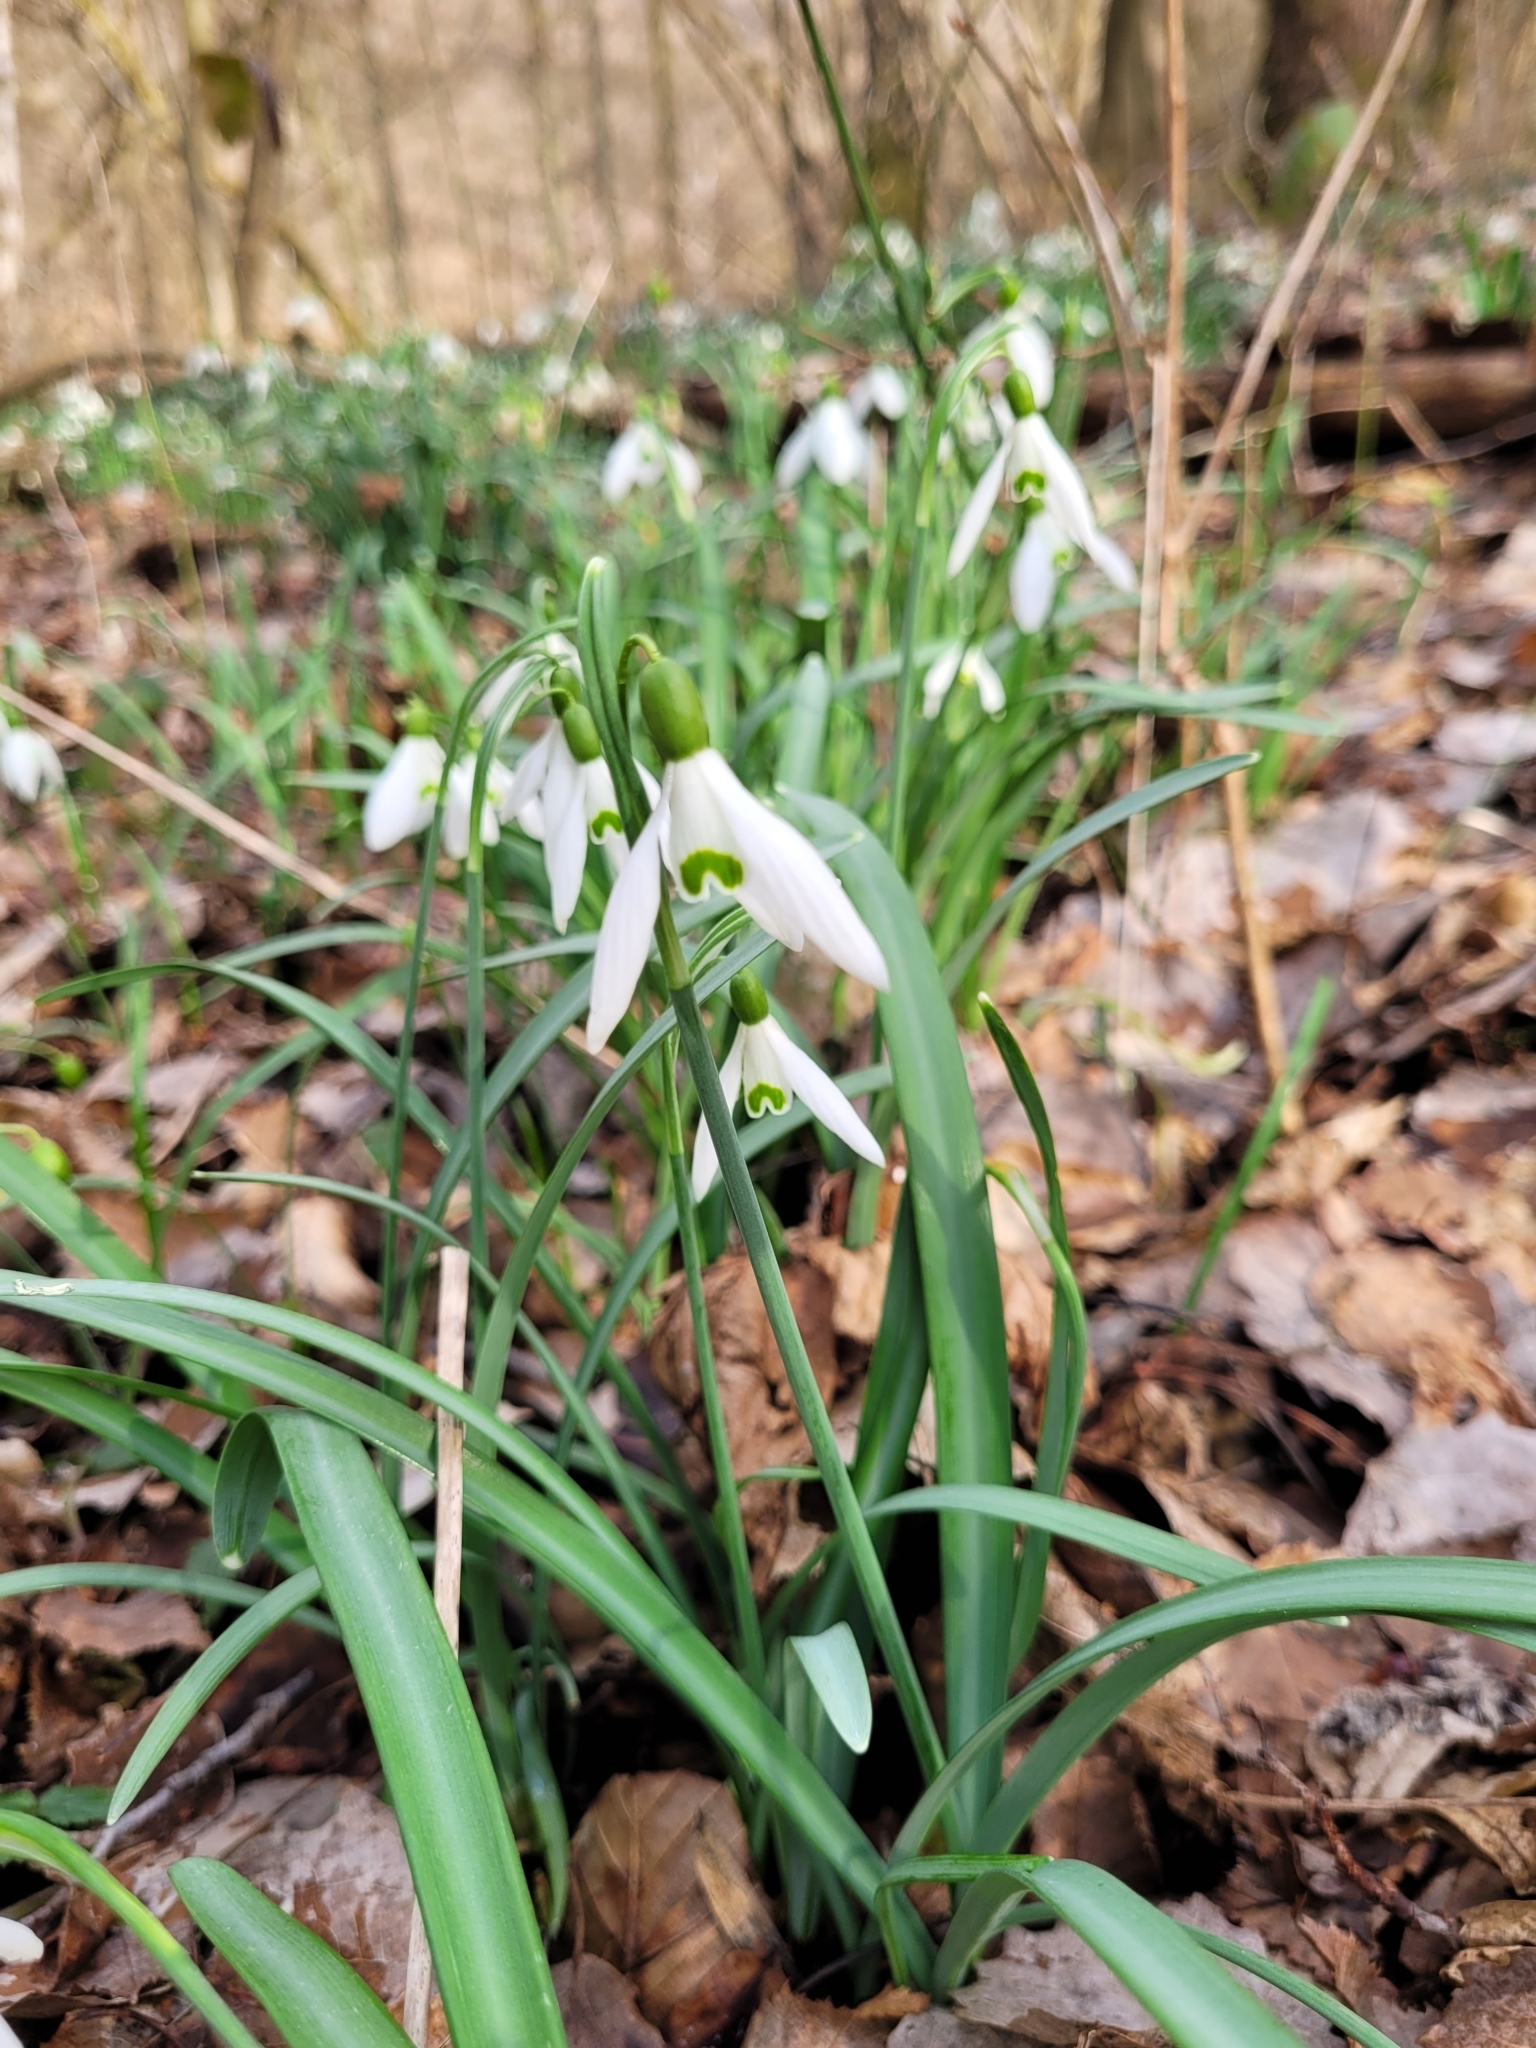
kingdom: Plantae
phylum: Tracheophyta
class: Liliopsida
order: Asparagales
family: Amaryllidaceae
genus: Galanthus
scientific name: Galanthus nivalis
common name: Snowdrop
